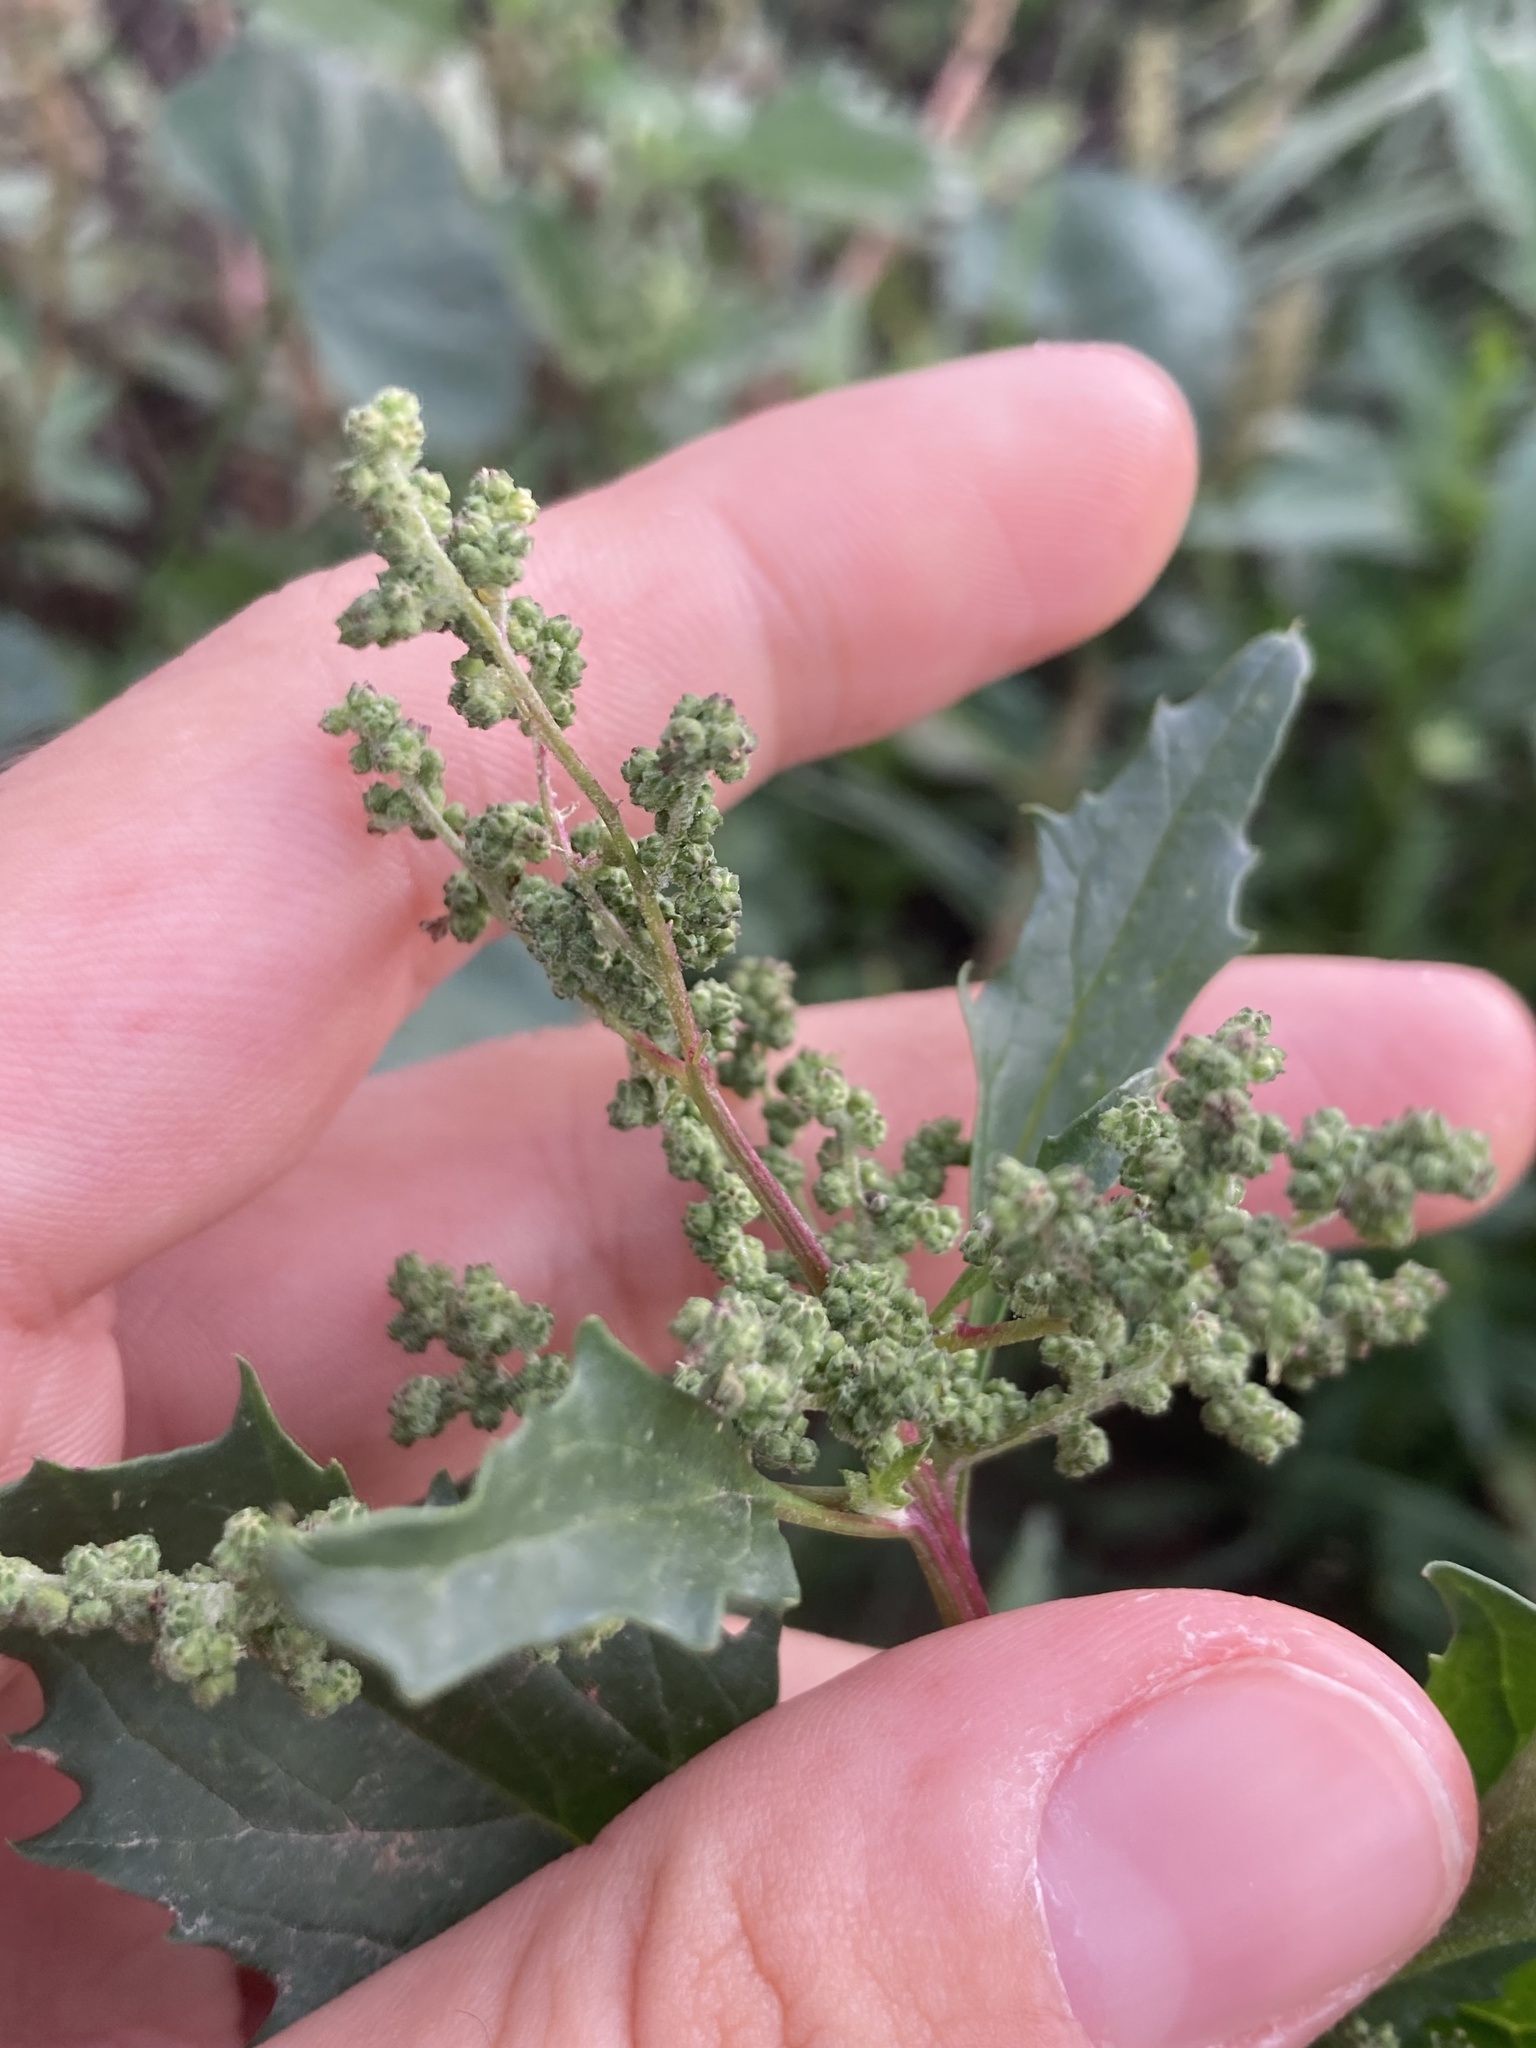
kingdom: Plantae
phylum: Tracheophyta
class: Magnoliopsida
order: Caryophyllales
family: Amaranthaceae
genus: Chenopodiastrum
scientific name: Chenopodiastrum murale
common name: Sowbane
